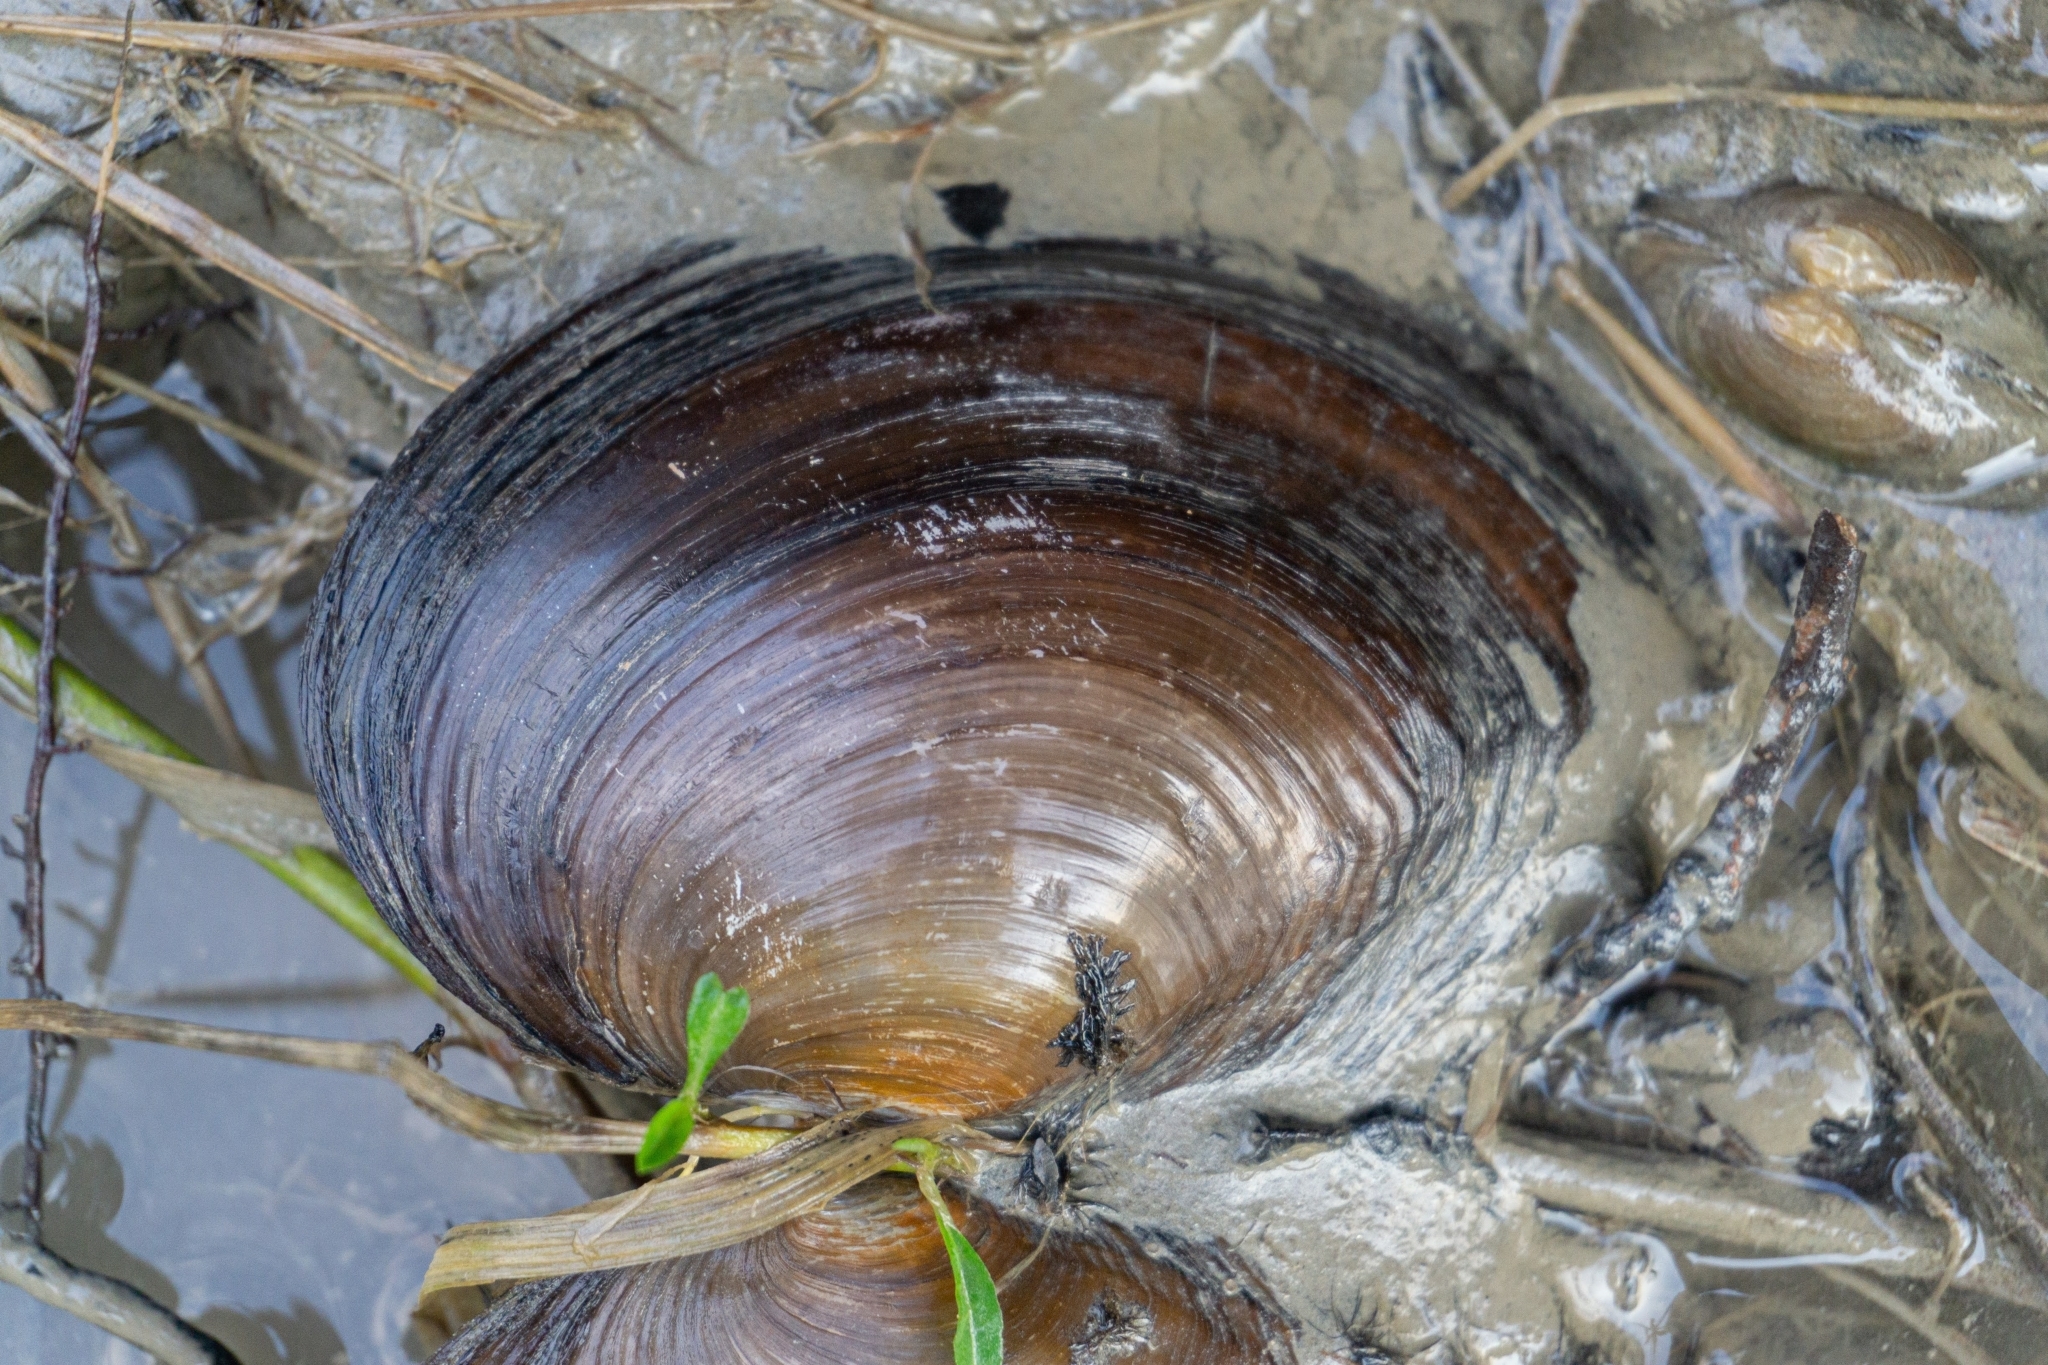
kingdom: Animalia
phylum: Mollusca
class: Bivalvia
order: Unionida
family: Unionidae
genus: Sinanodonta
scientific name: Sinanodonta woodiana
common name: Chinese pond mussel
